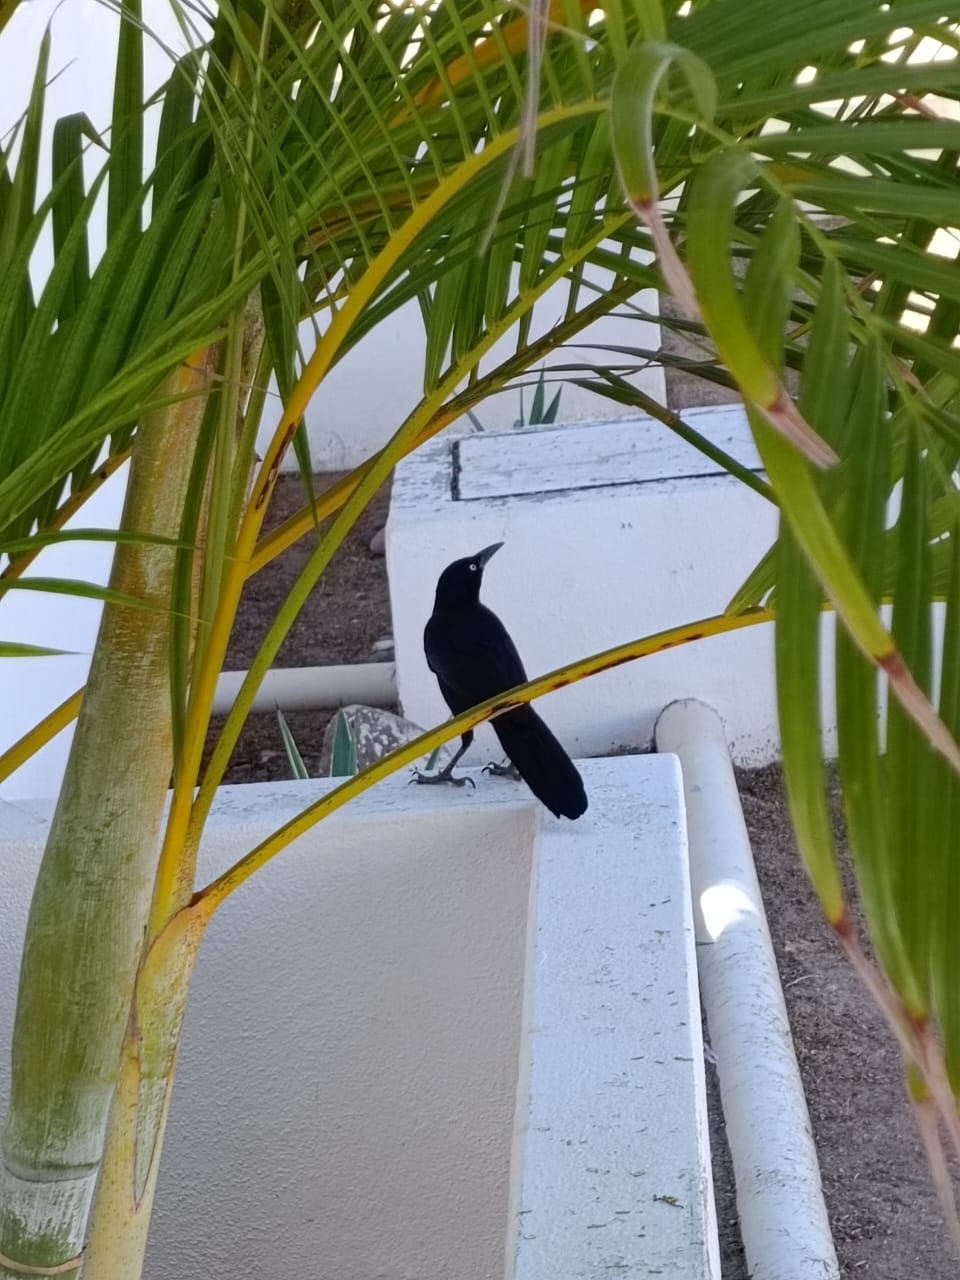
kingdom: Animalia
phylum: Chordata
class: Aves
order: Passeriformes
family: Icteridae
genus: Quiscalus
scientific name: Quiscalus mexicanus
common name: Great-tailed grackle
